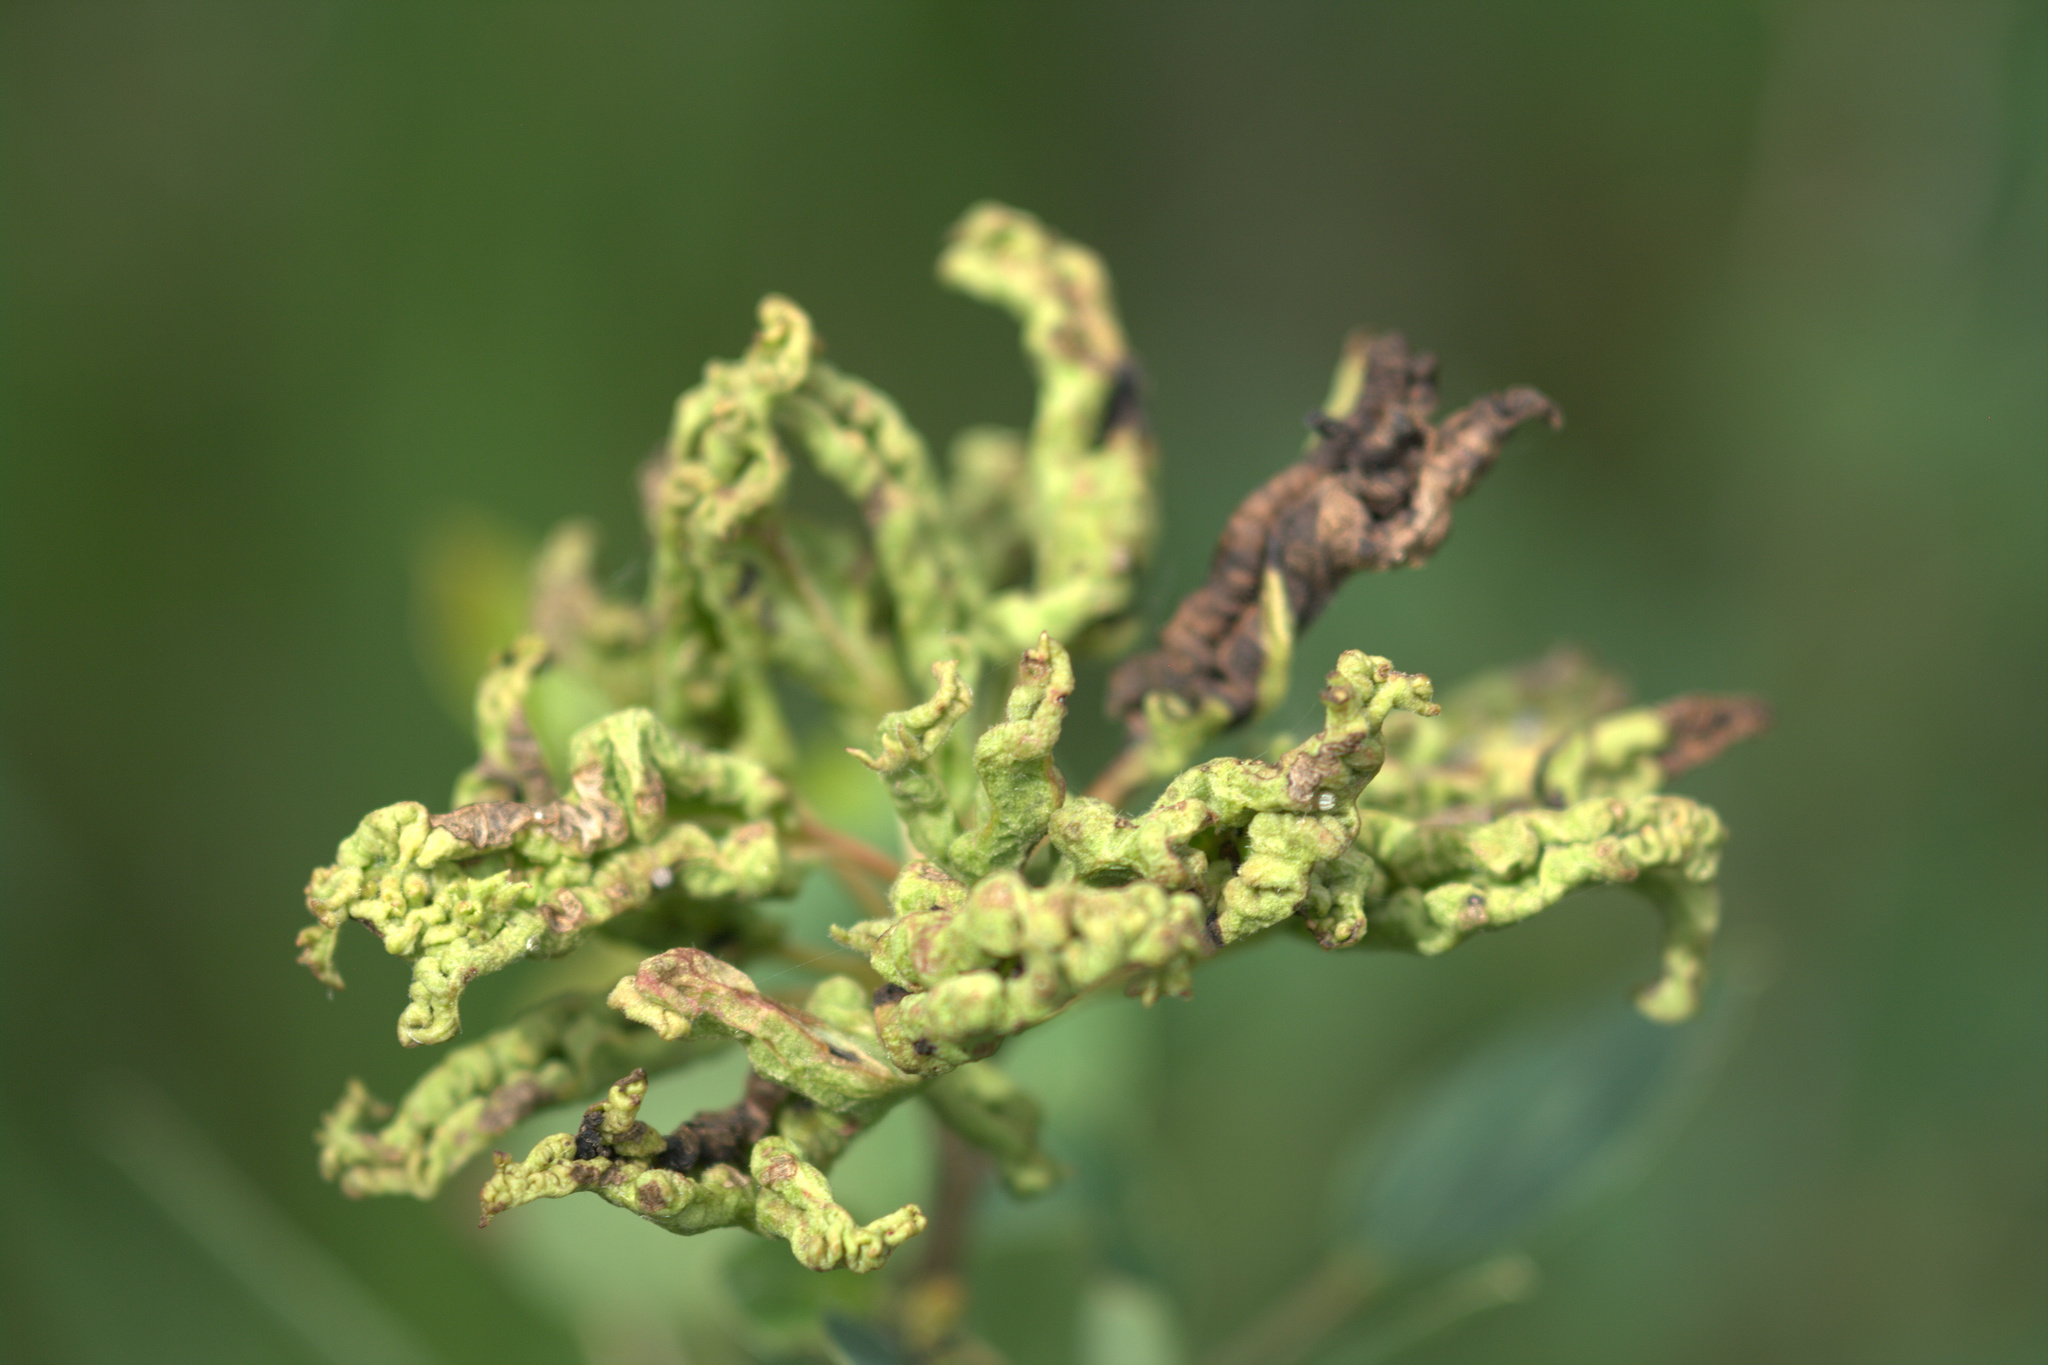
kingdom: Animalia
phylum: Arthropoda
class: Arachnida
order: Trombidiformes
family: Eriophyidae
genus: Aceria
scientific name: Aceria dispar
